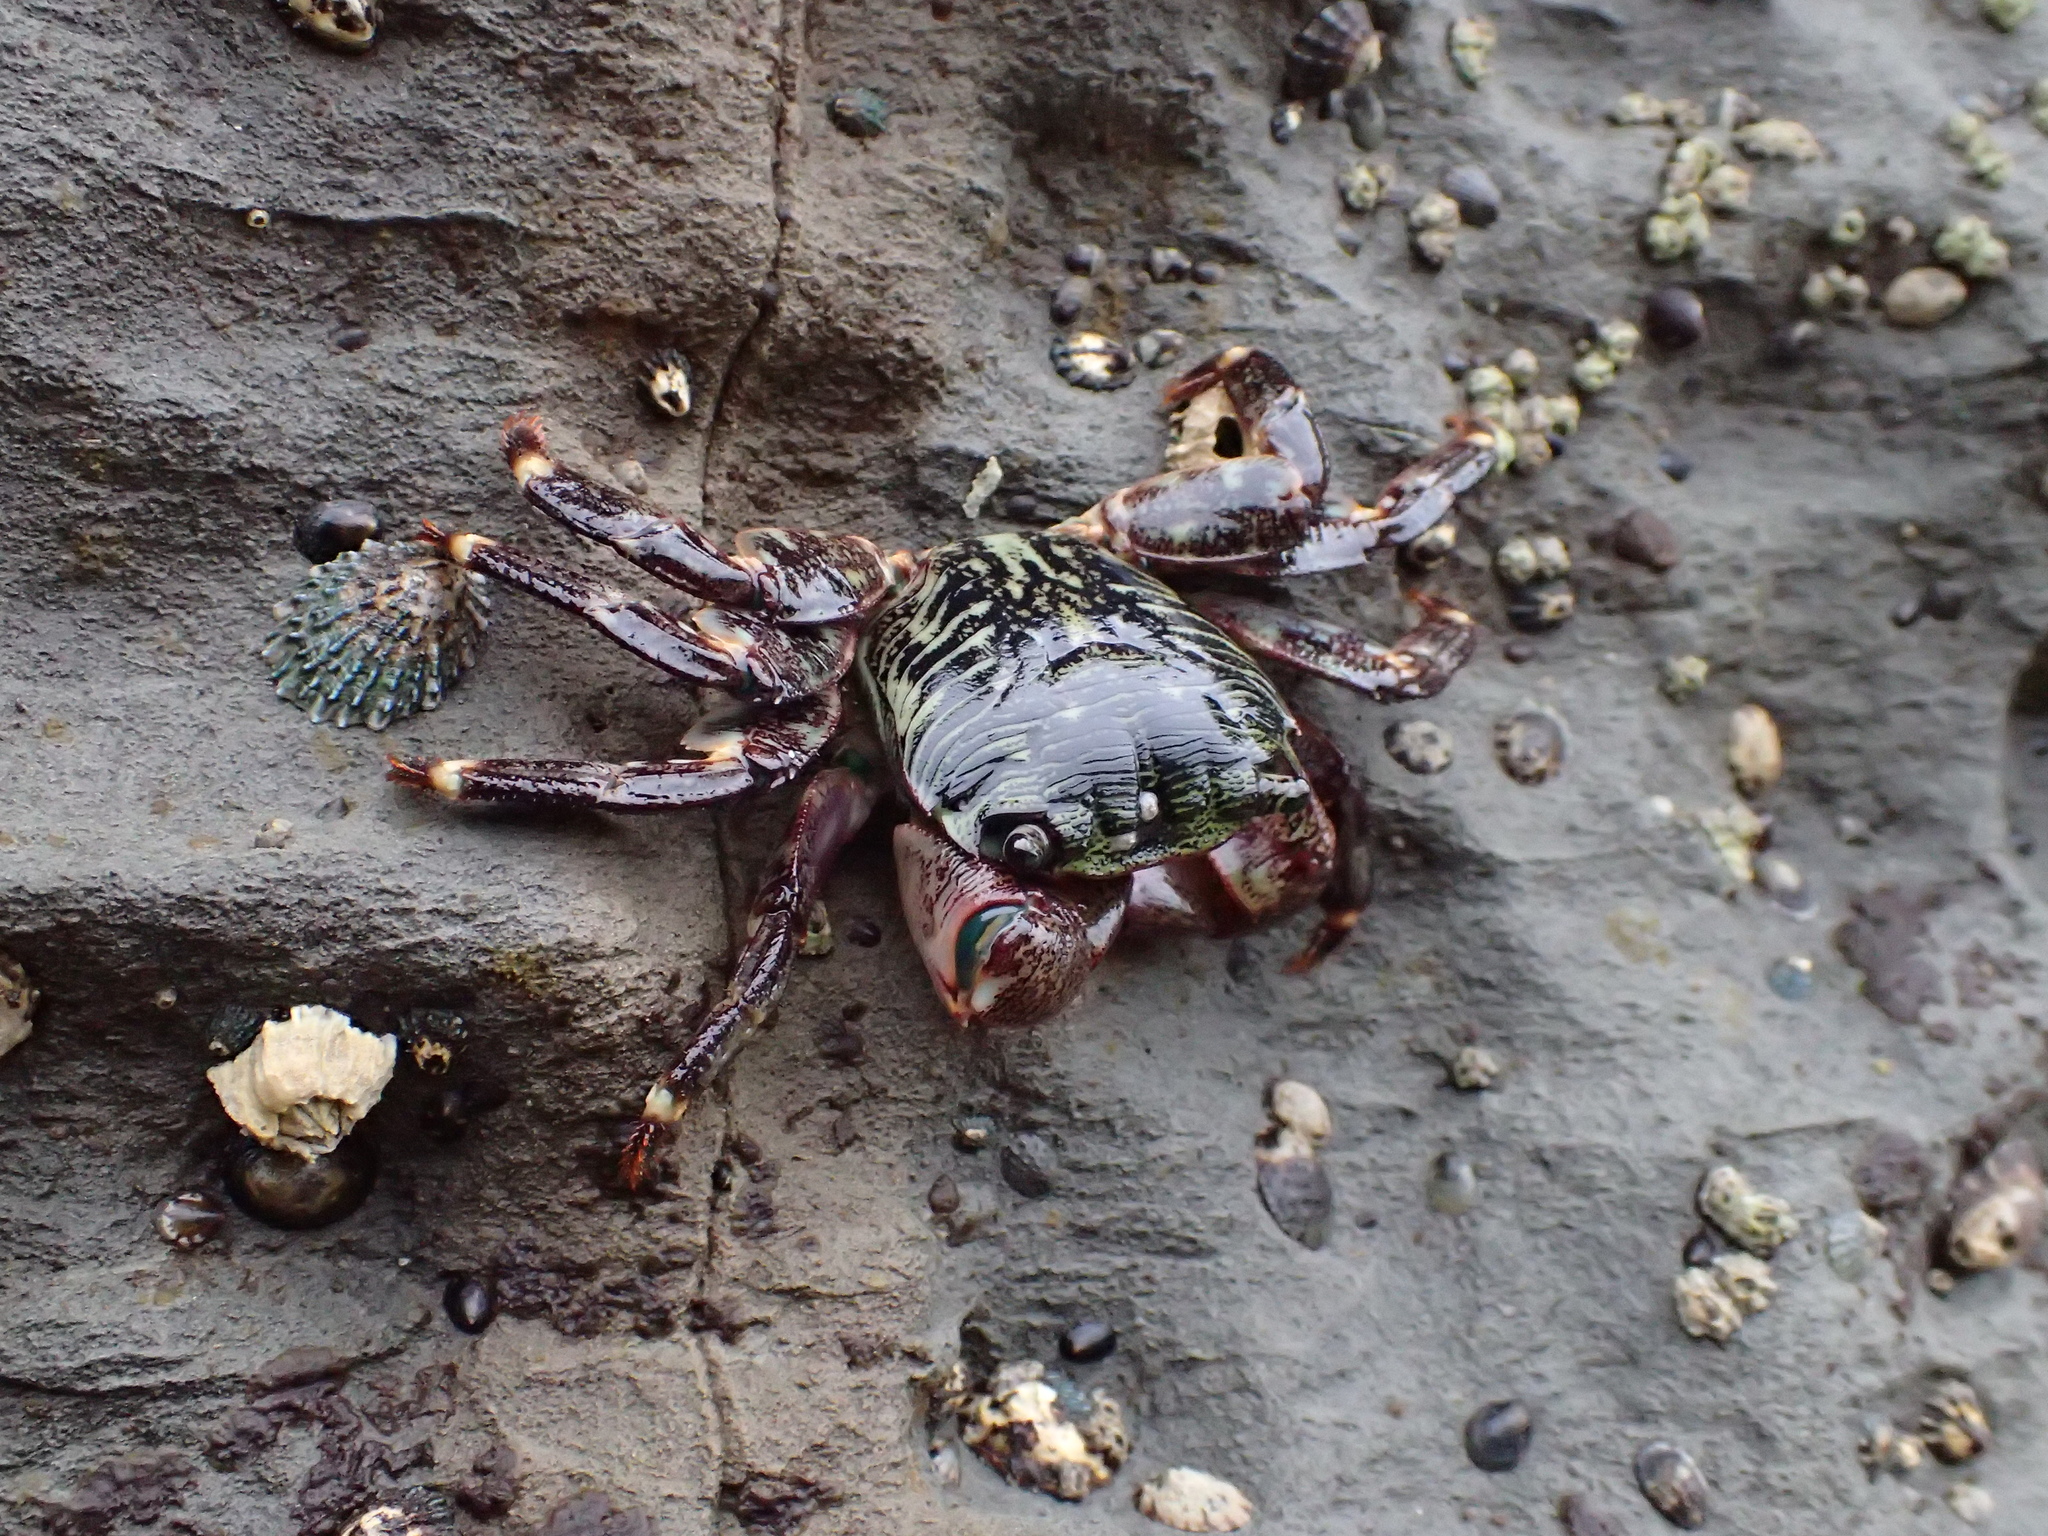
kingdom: Animalia
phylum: Arthropoda
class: Malacostraca
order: Decapoda
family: Grapsidae
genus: Pachygrapsus
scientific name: Pachygrapsus crassipes
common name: Striped shore crab
